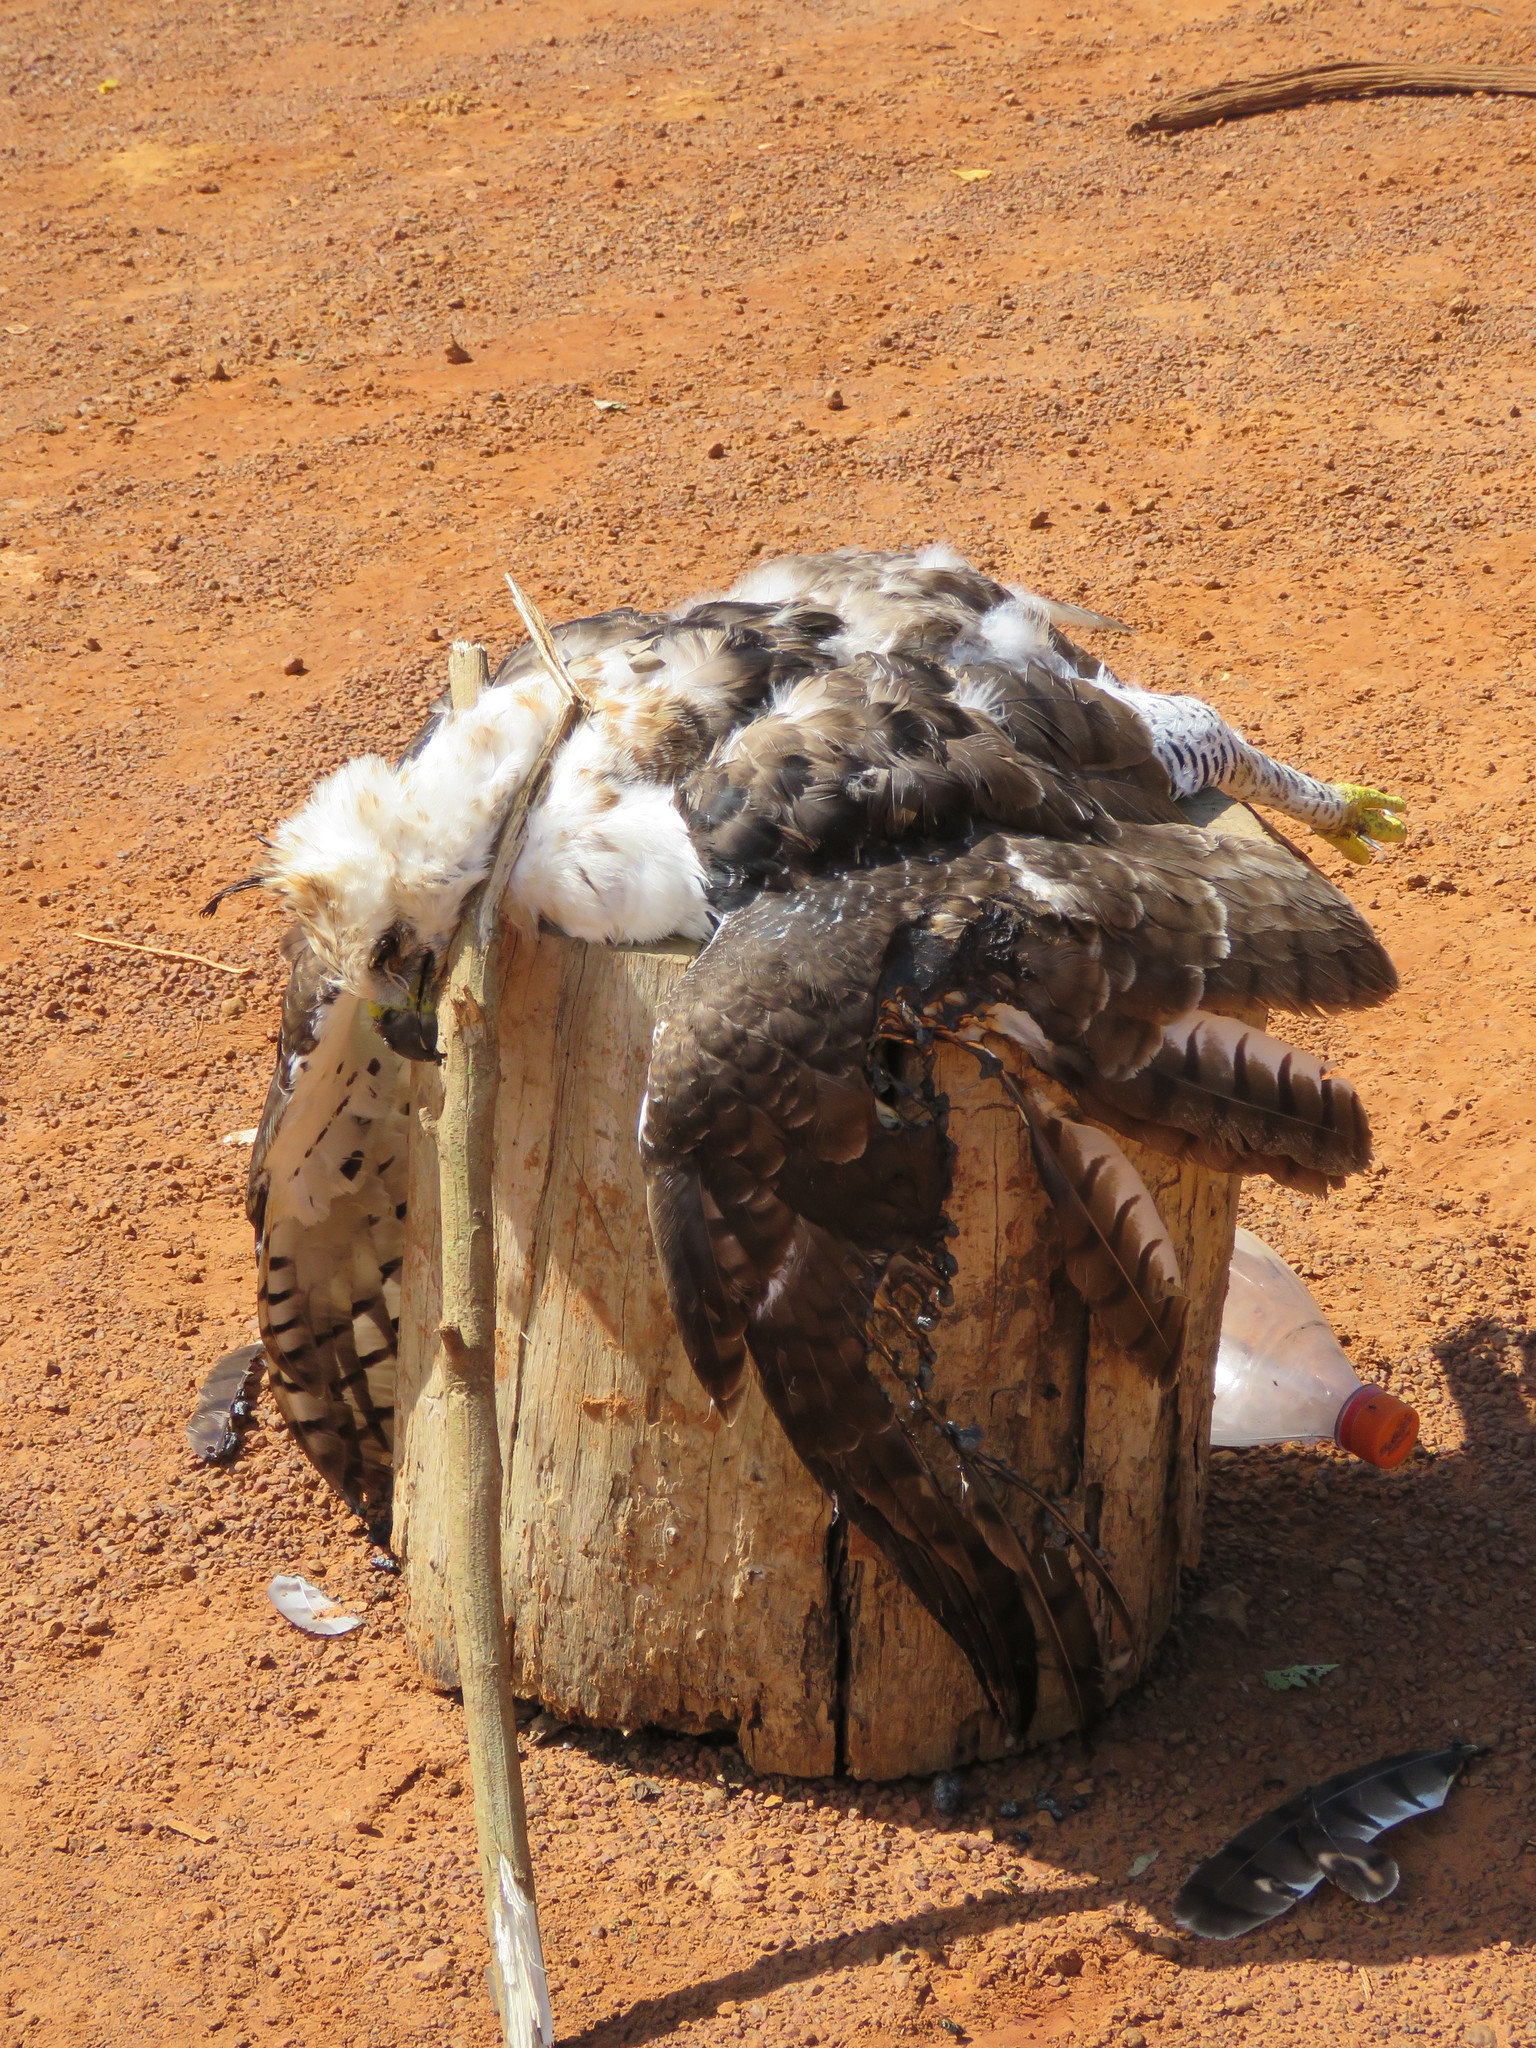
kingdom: Animalia
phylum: Chordata
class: Aves
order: Accipitriformes
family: Accipitridae
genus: Spizaetus
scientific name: Spizaetus ornatus
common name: Ornate hawk-eagle
